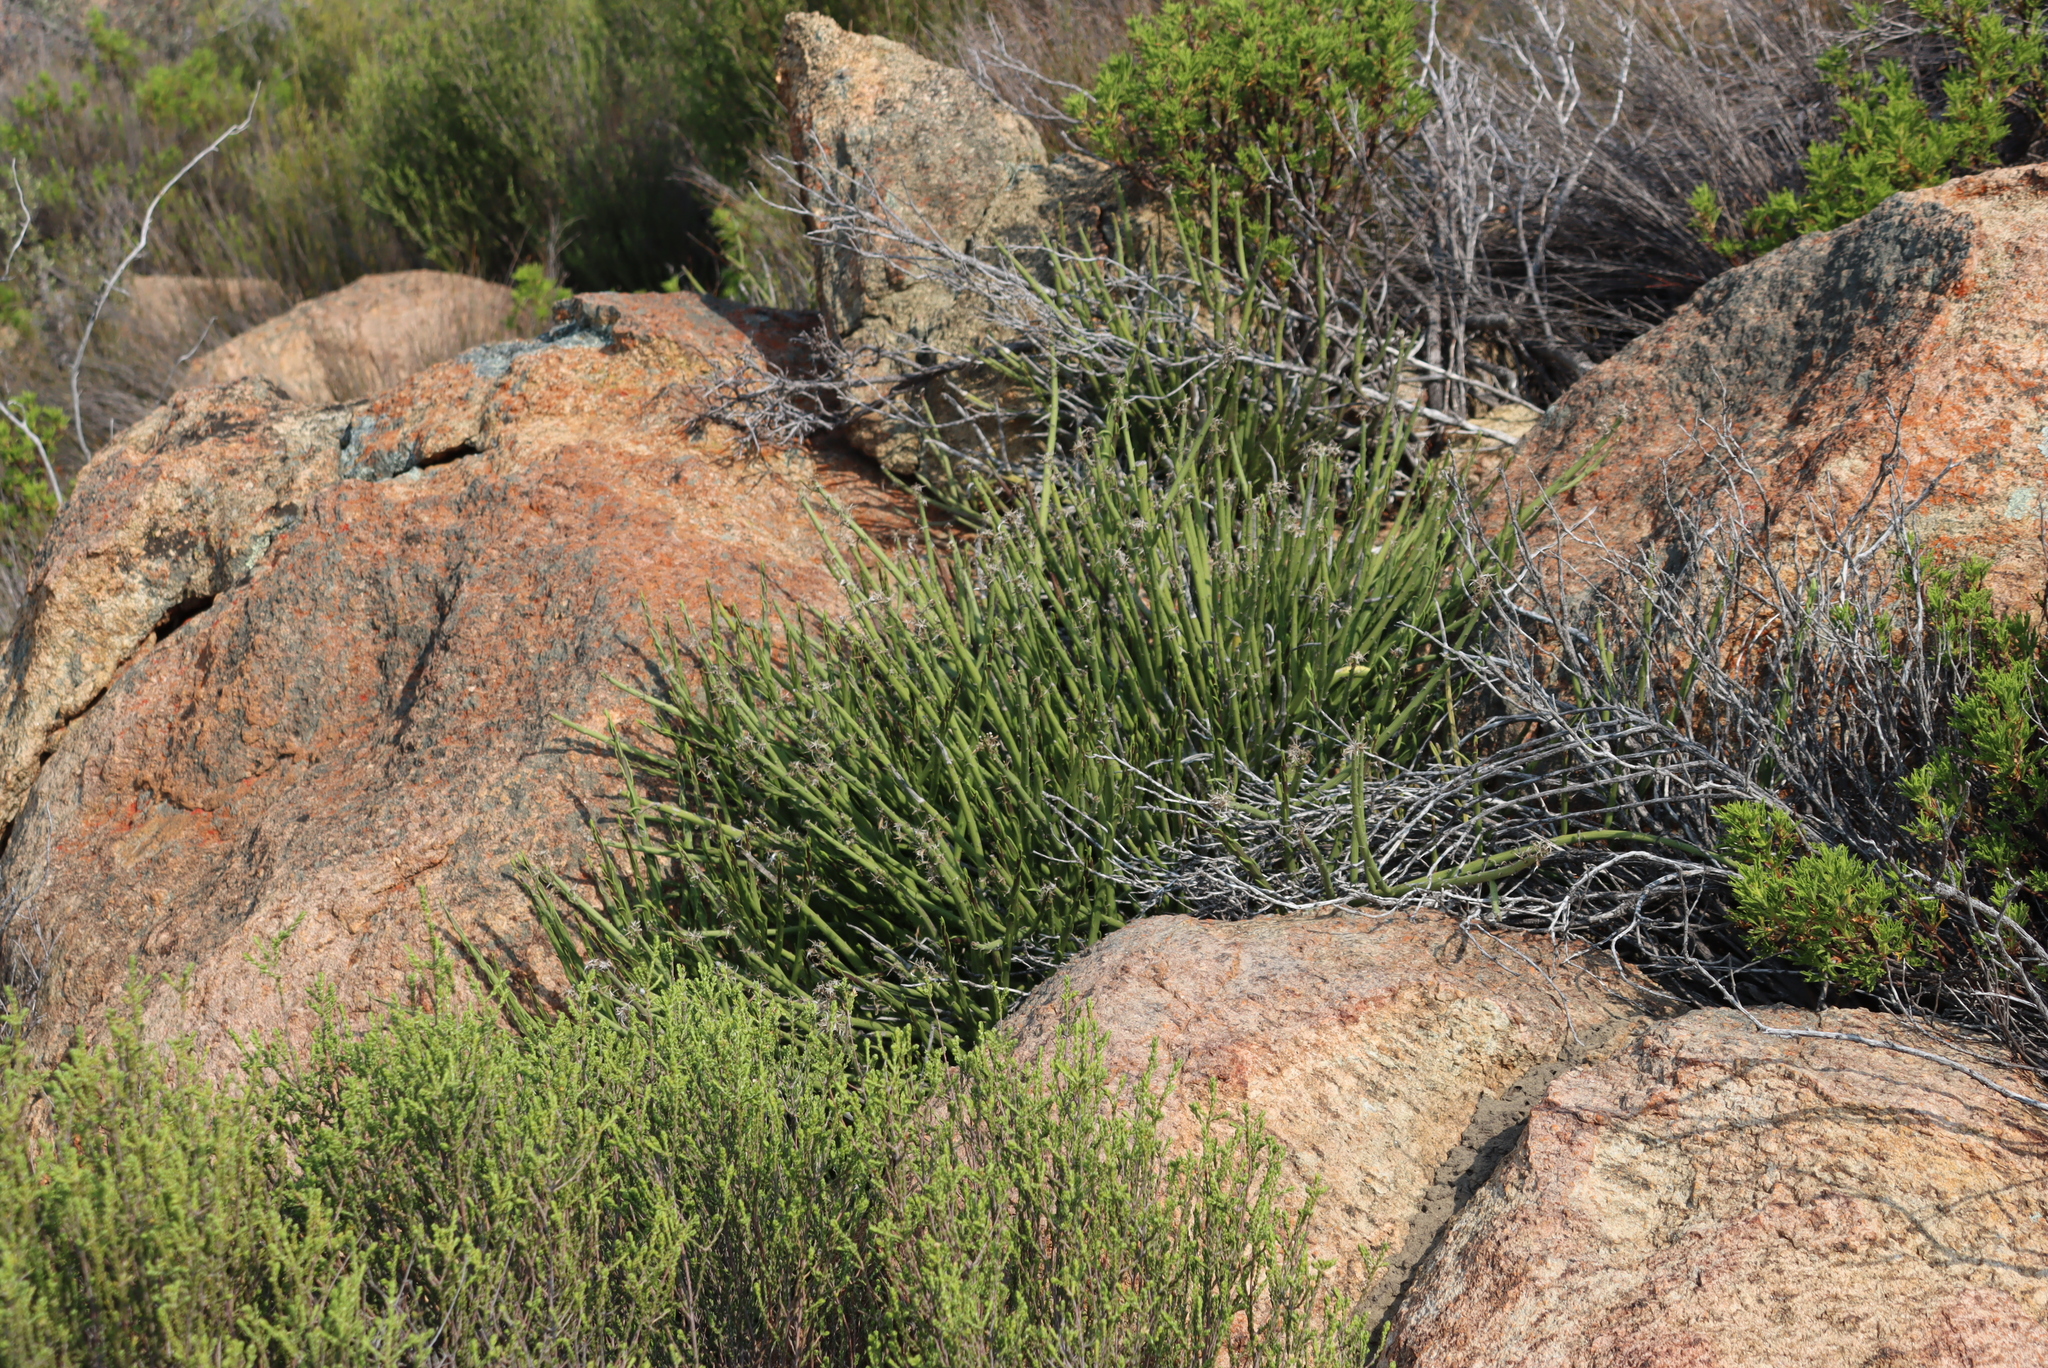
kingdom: Plantae
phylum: Tracheophyta
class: Magnoliopsida
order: Asterales
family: Asteraceae
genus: Senecio
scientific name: Senecio junceus
